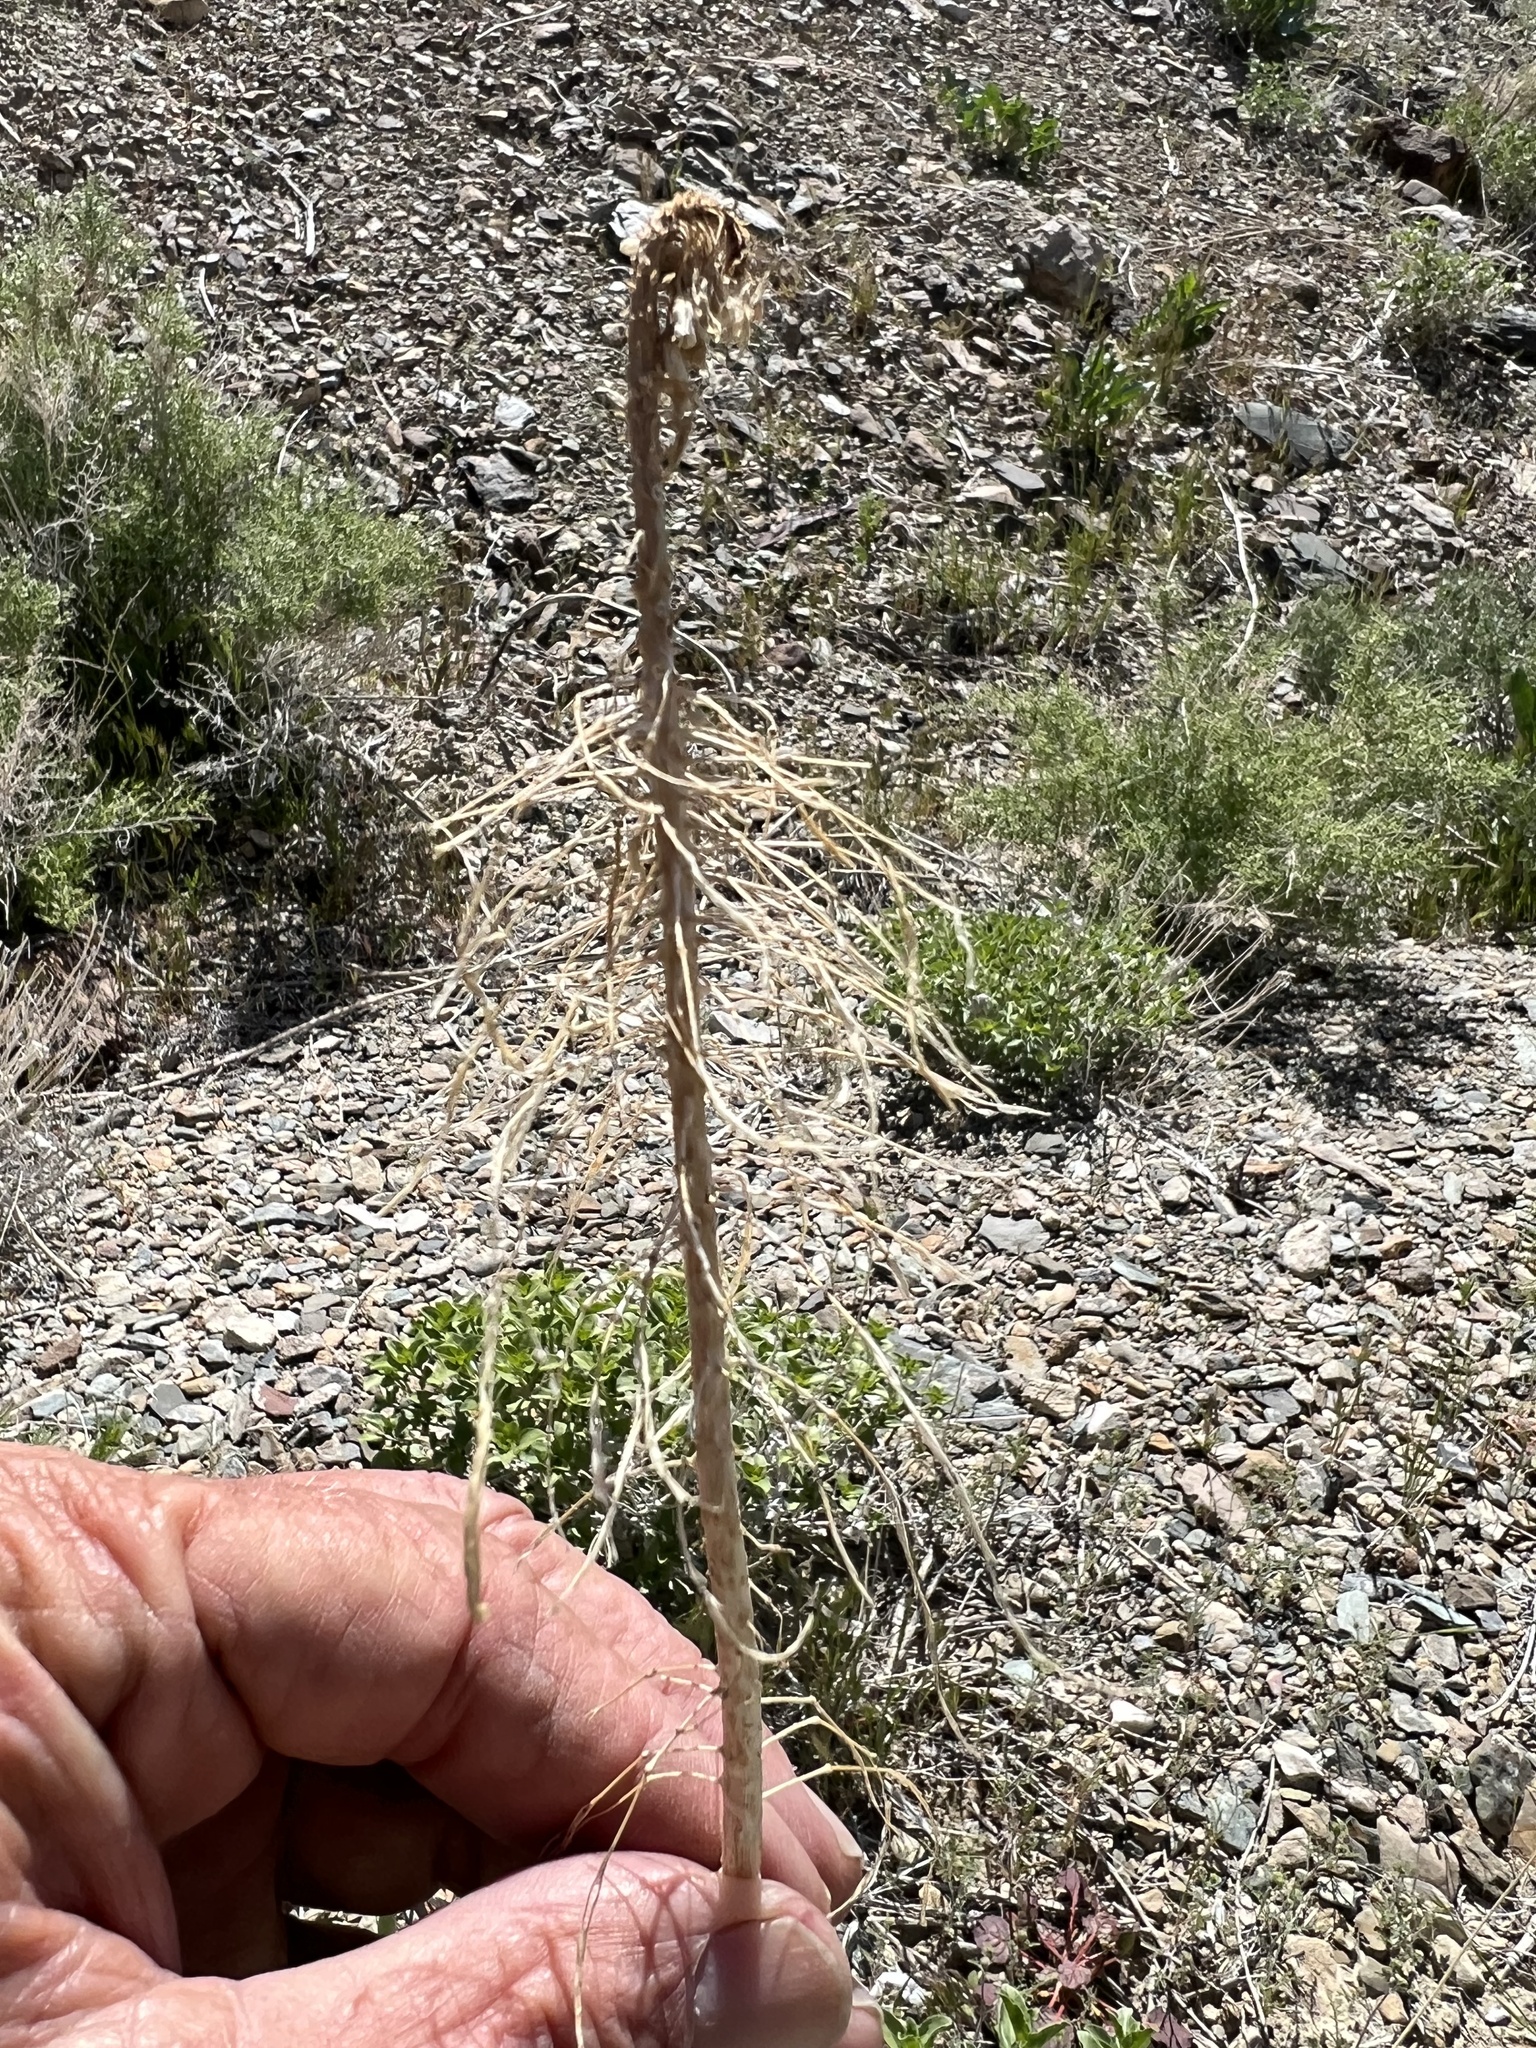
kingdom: Plantae
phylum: Tracheophyta
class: Magnoliopsida
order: Brassicales
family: Brassicaceae
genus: Stanleya
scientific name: Stanleya elata
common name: Panamint prince's plume
